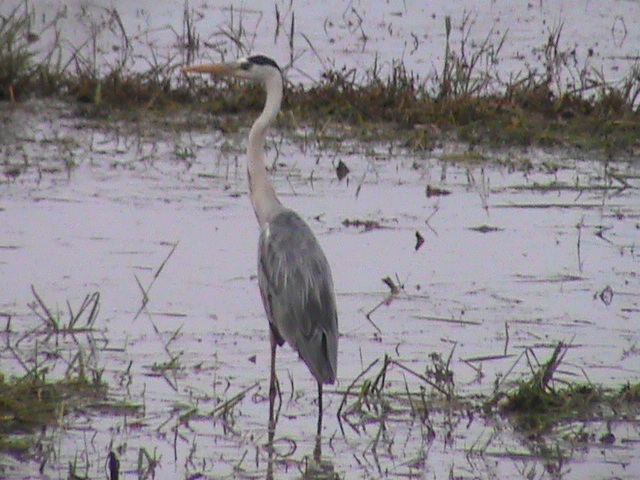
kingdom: Animalia
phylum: Chordata
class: Aves
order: Pelecaniformes
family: Ardeidae
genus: Ardea
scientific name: Ardea cinerea
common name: Grey heron
